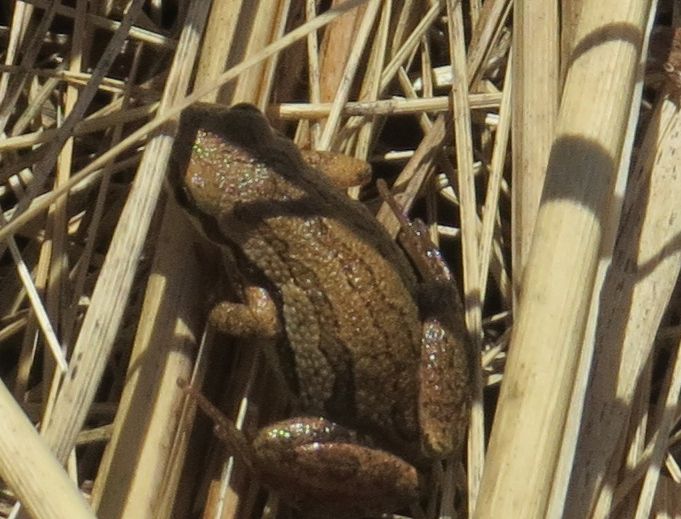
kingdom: Animalia
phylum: Chordata
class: Amphibia
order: Anura
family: Hylidae
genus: Pseudacris
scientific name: Pseudacris maculata
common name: Boreal chorus frog
